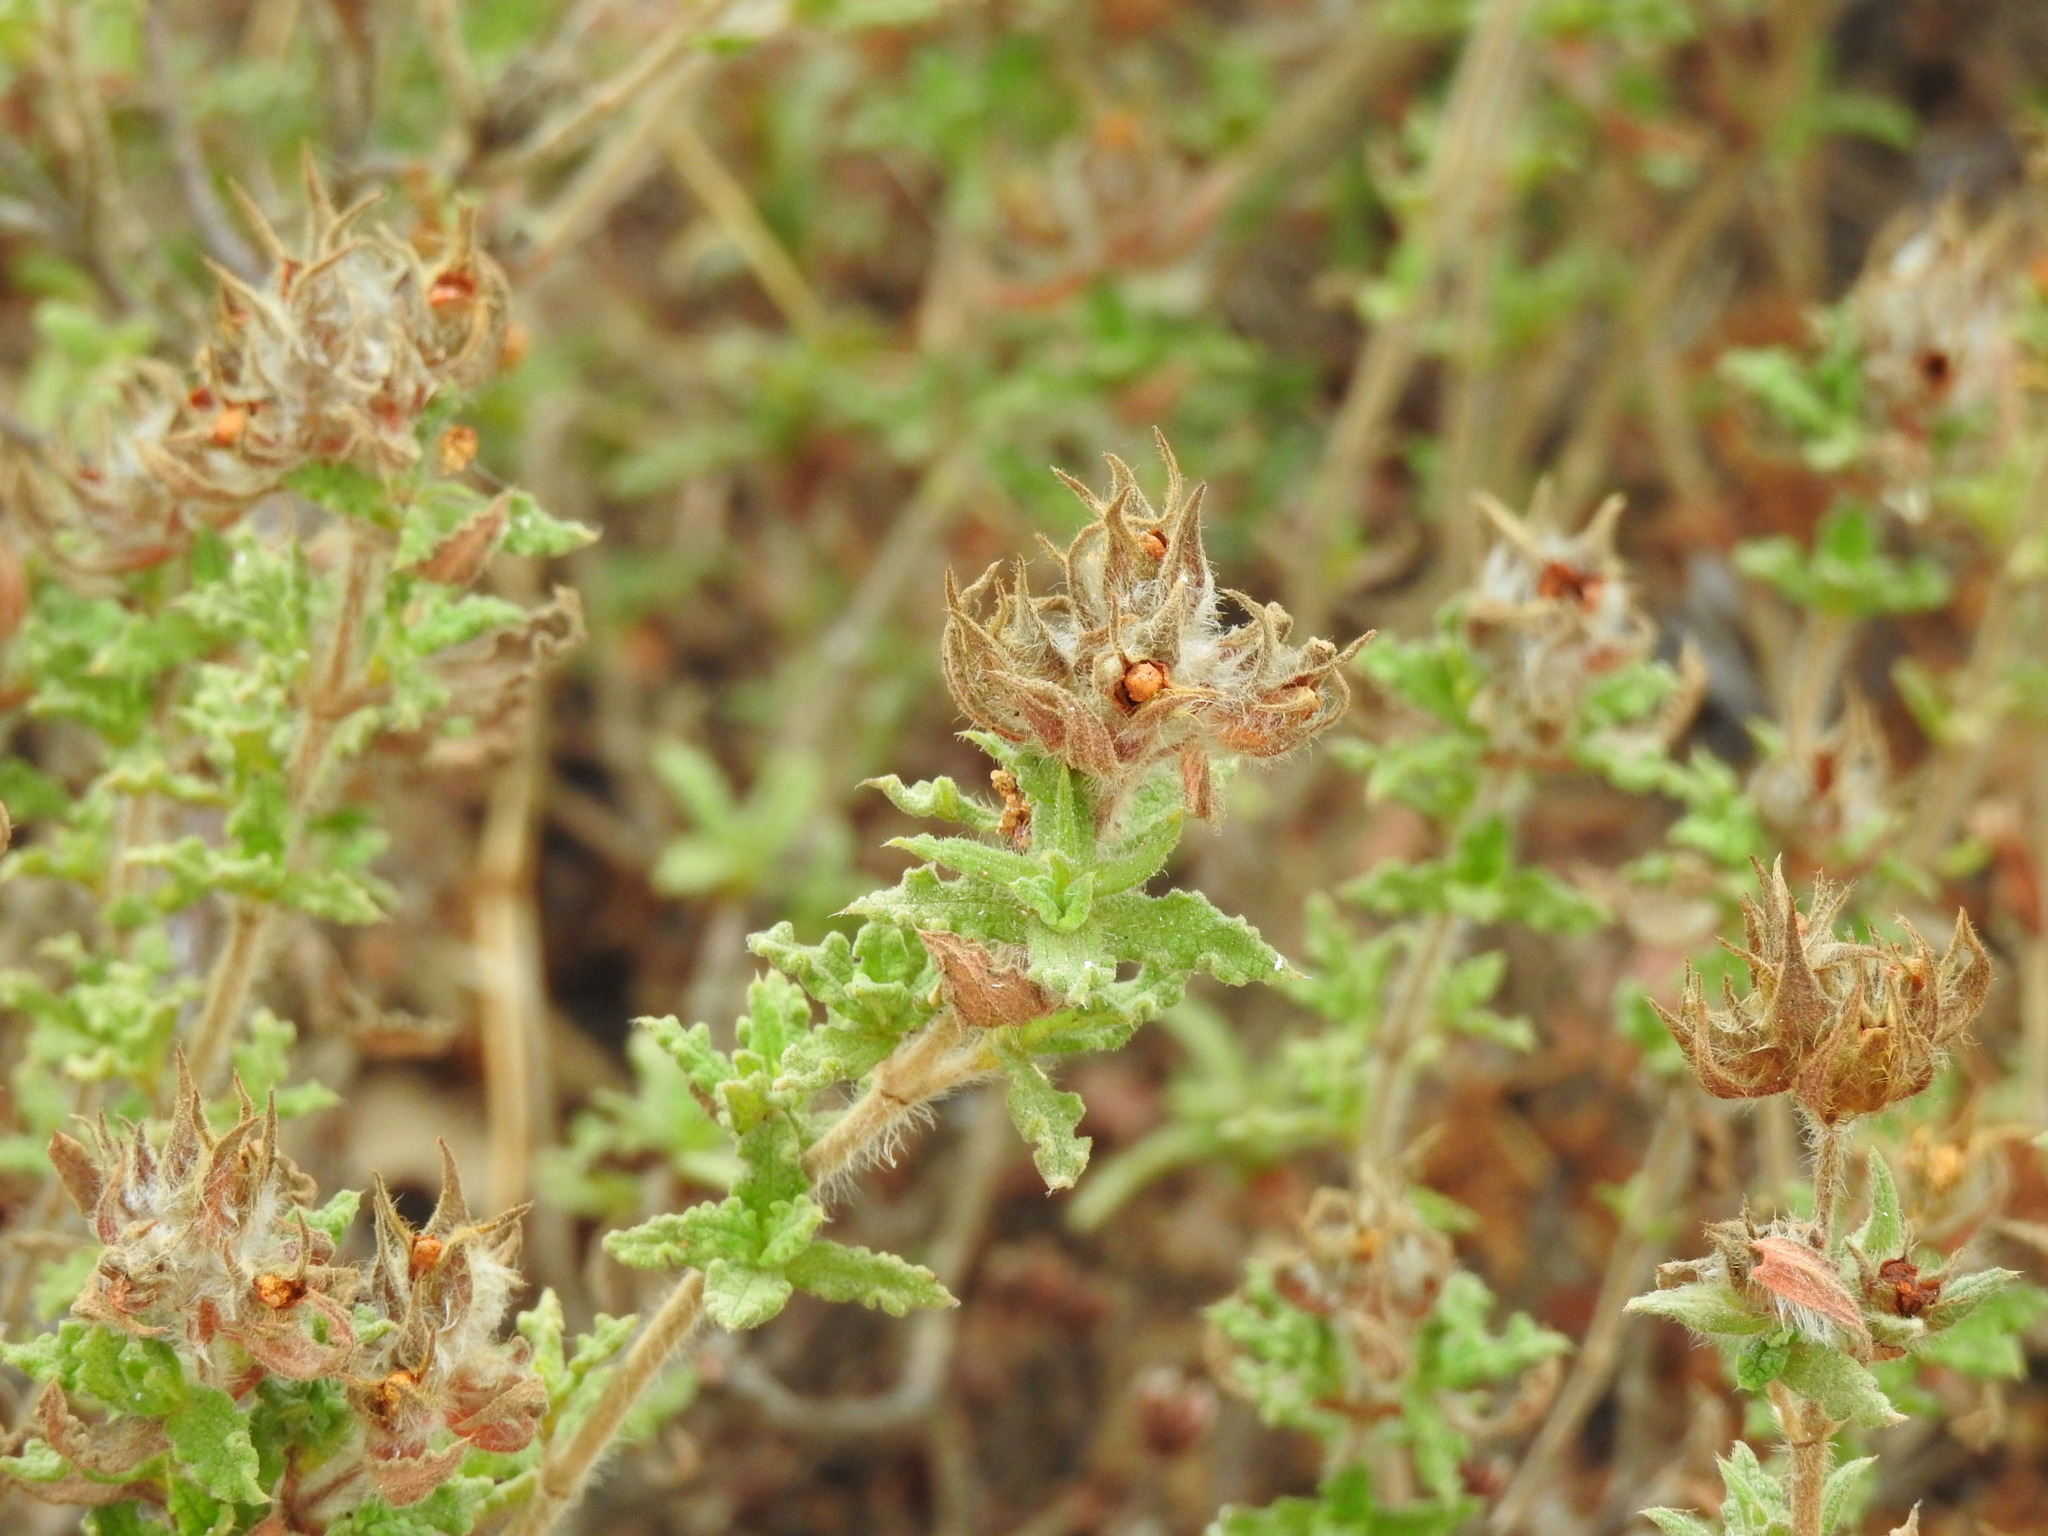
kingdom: Plantae
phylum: Tracheophyta
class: Magnoliopsida
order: Malvales
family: Cistaceae
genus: Cistus
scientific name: Cistus crispus
